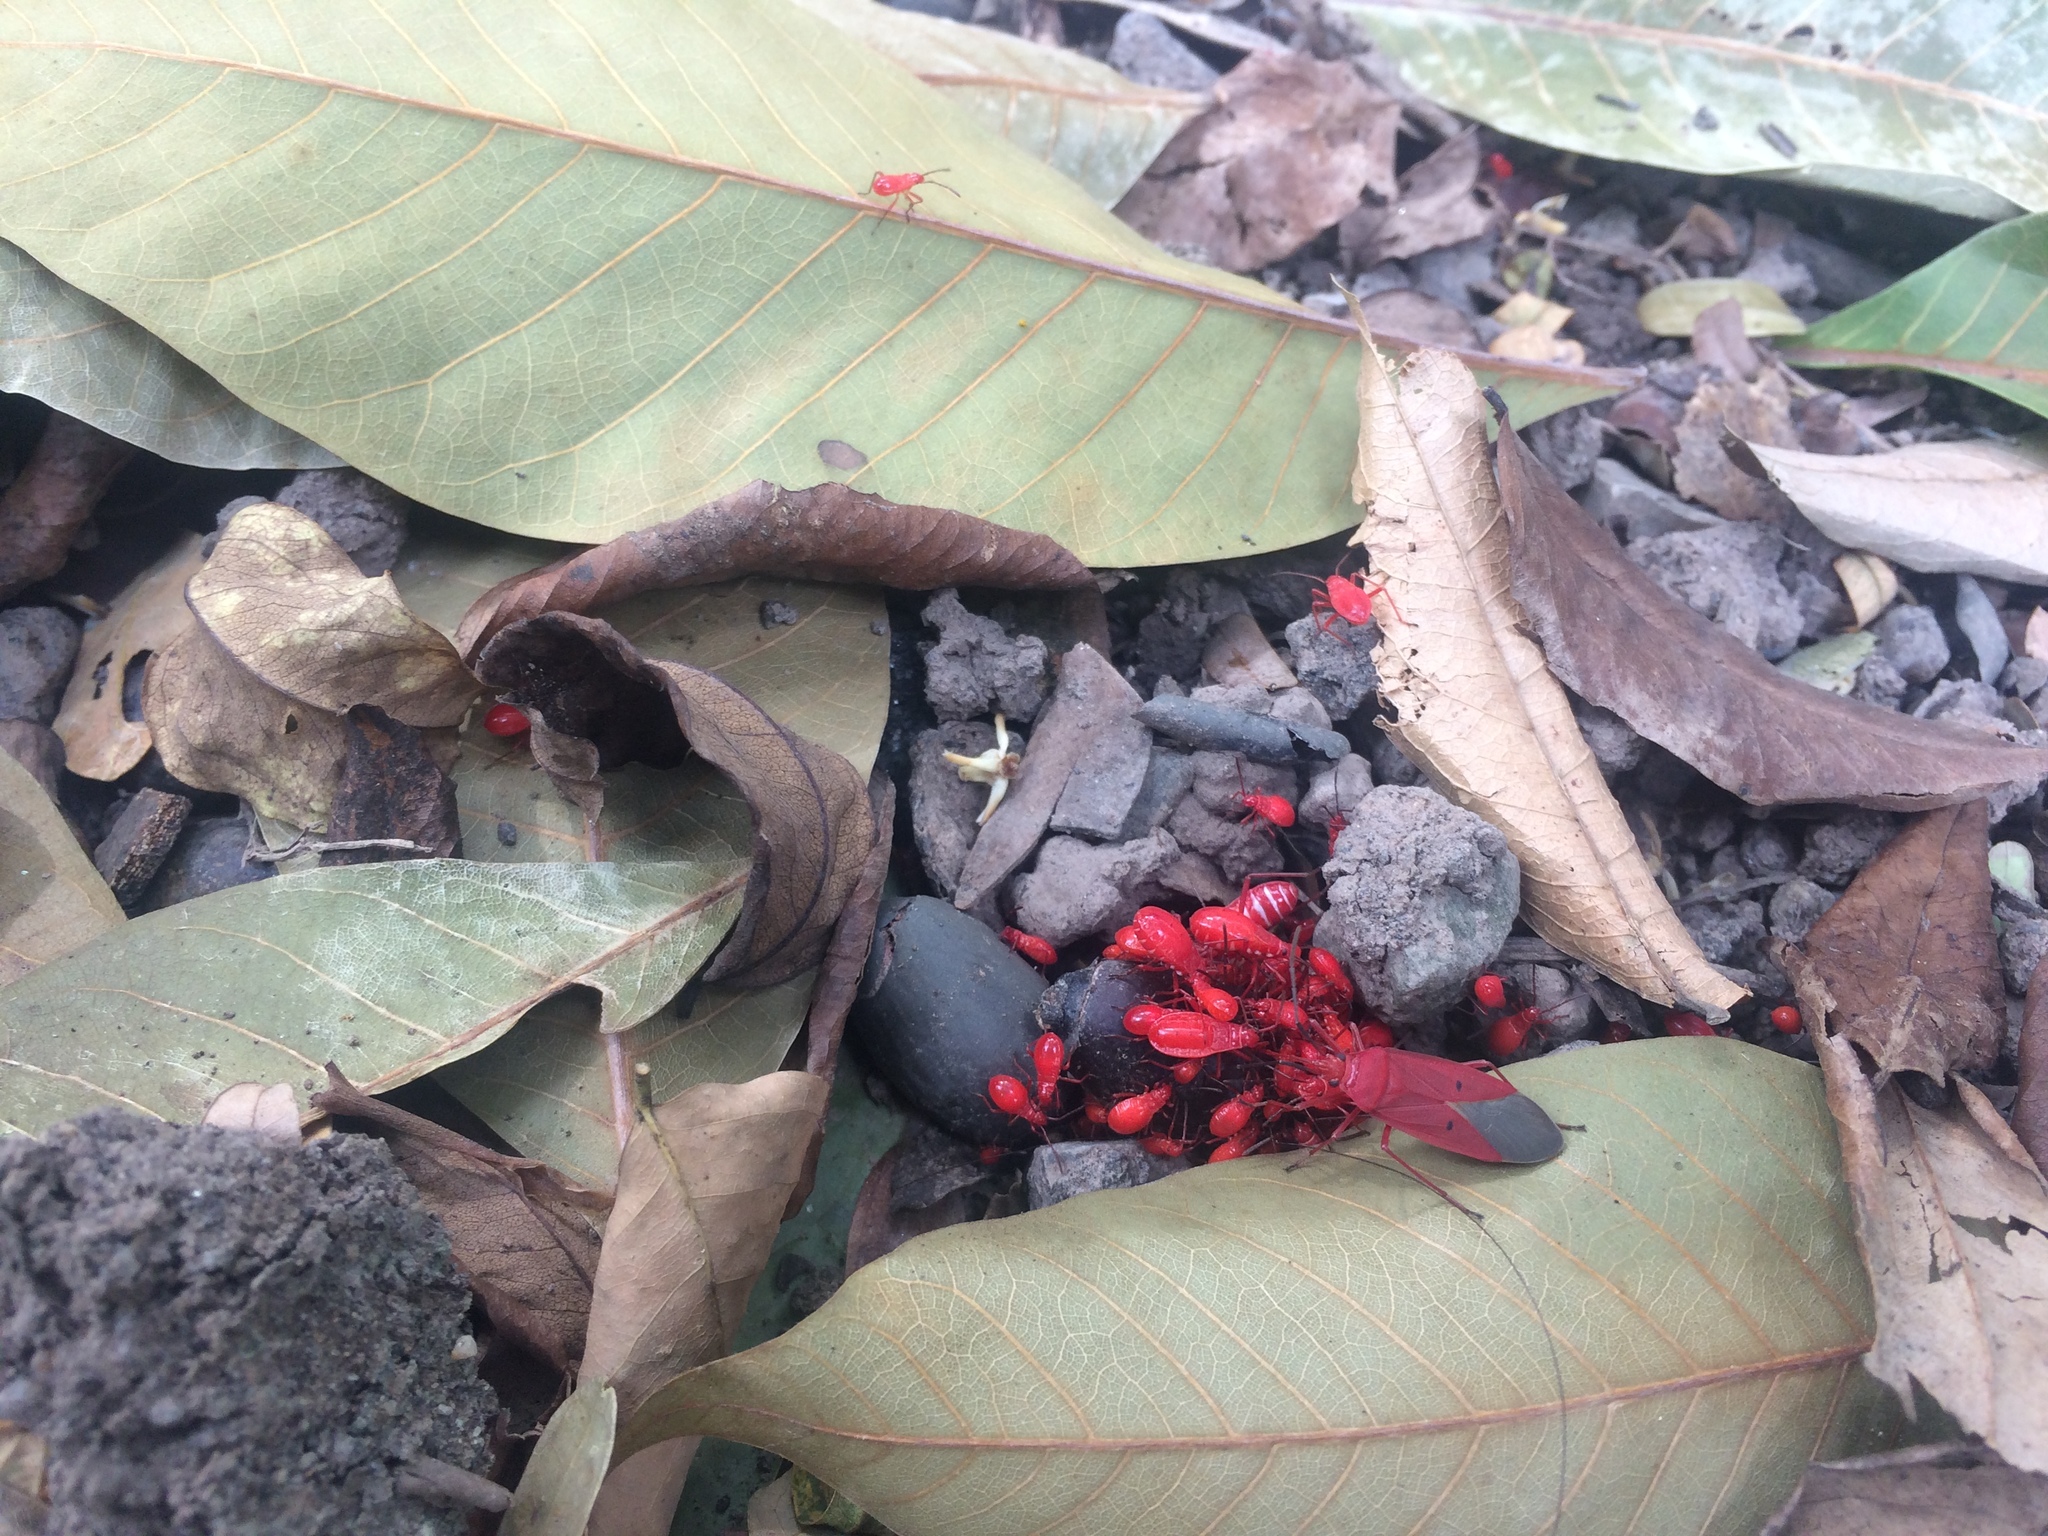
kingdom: Animalia
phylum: Arthropoda
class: Insecta
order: Hemiptera
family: Pyrrhocoridae
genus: Dysdercus
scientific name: Dysdercus evanescens
